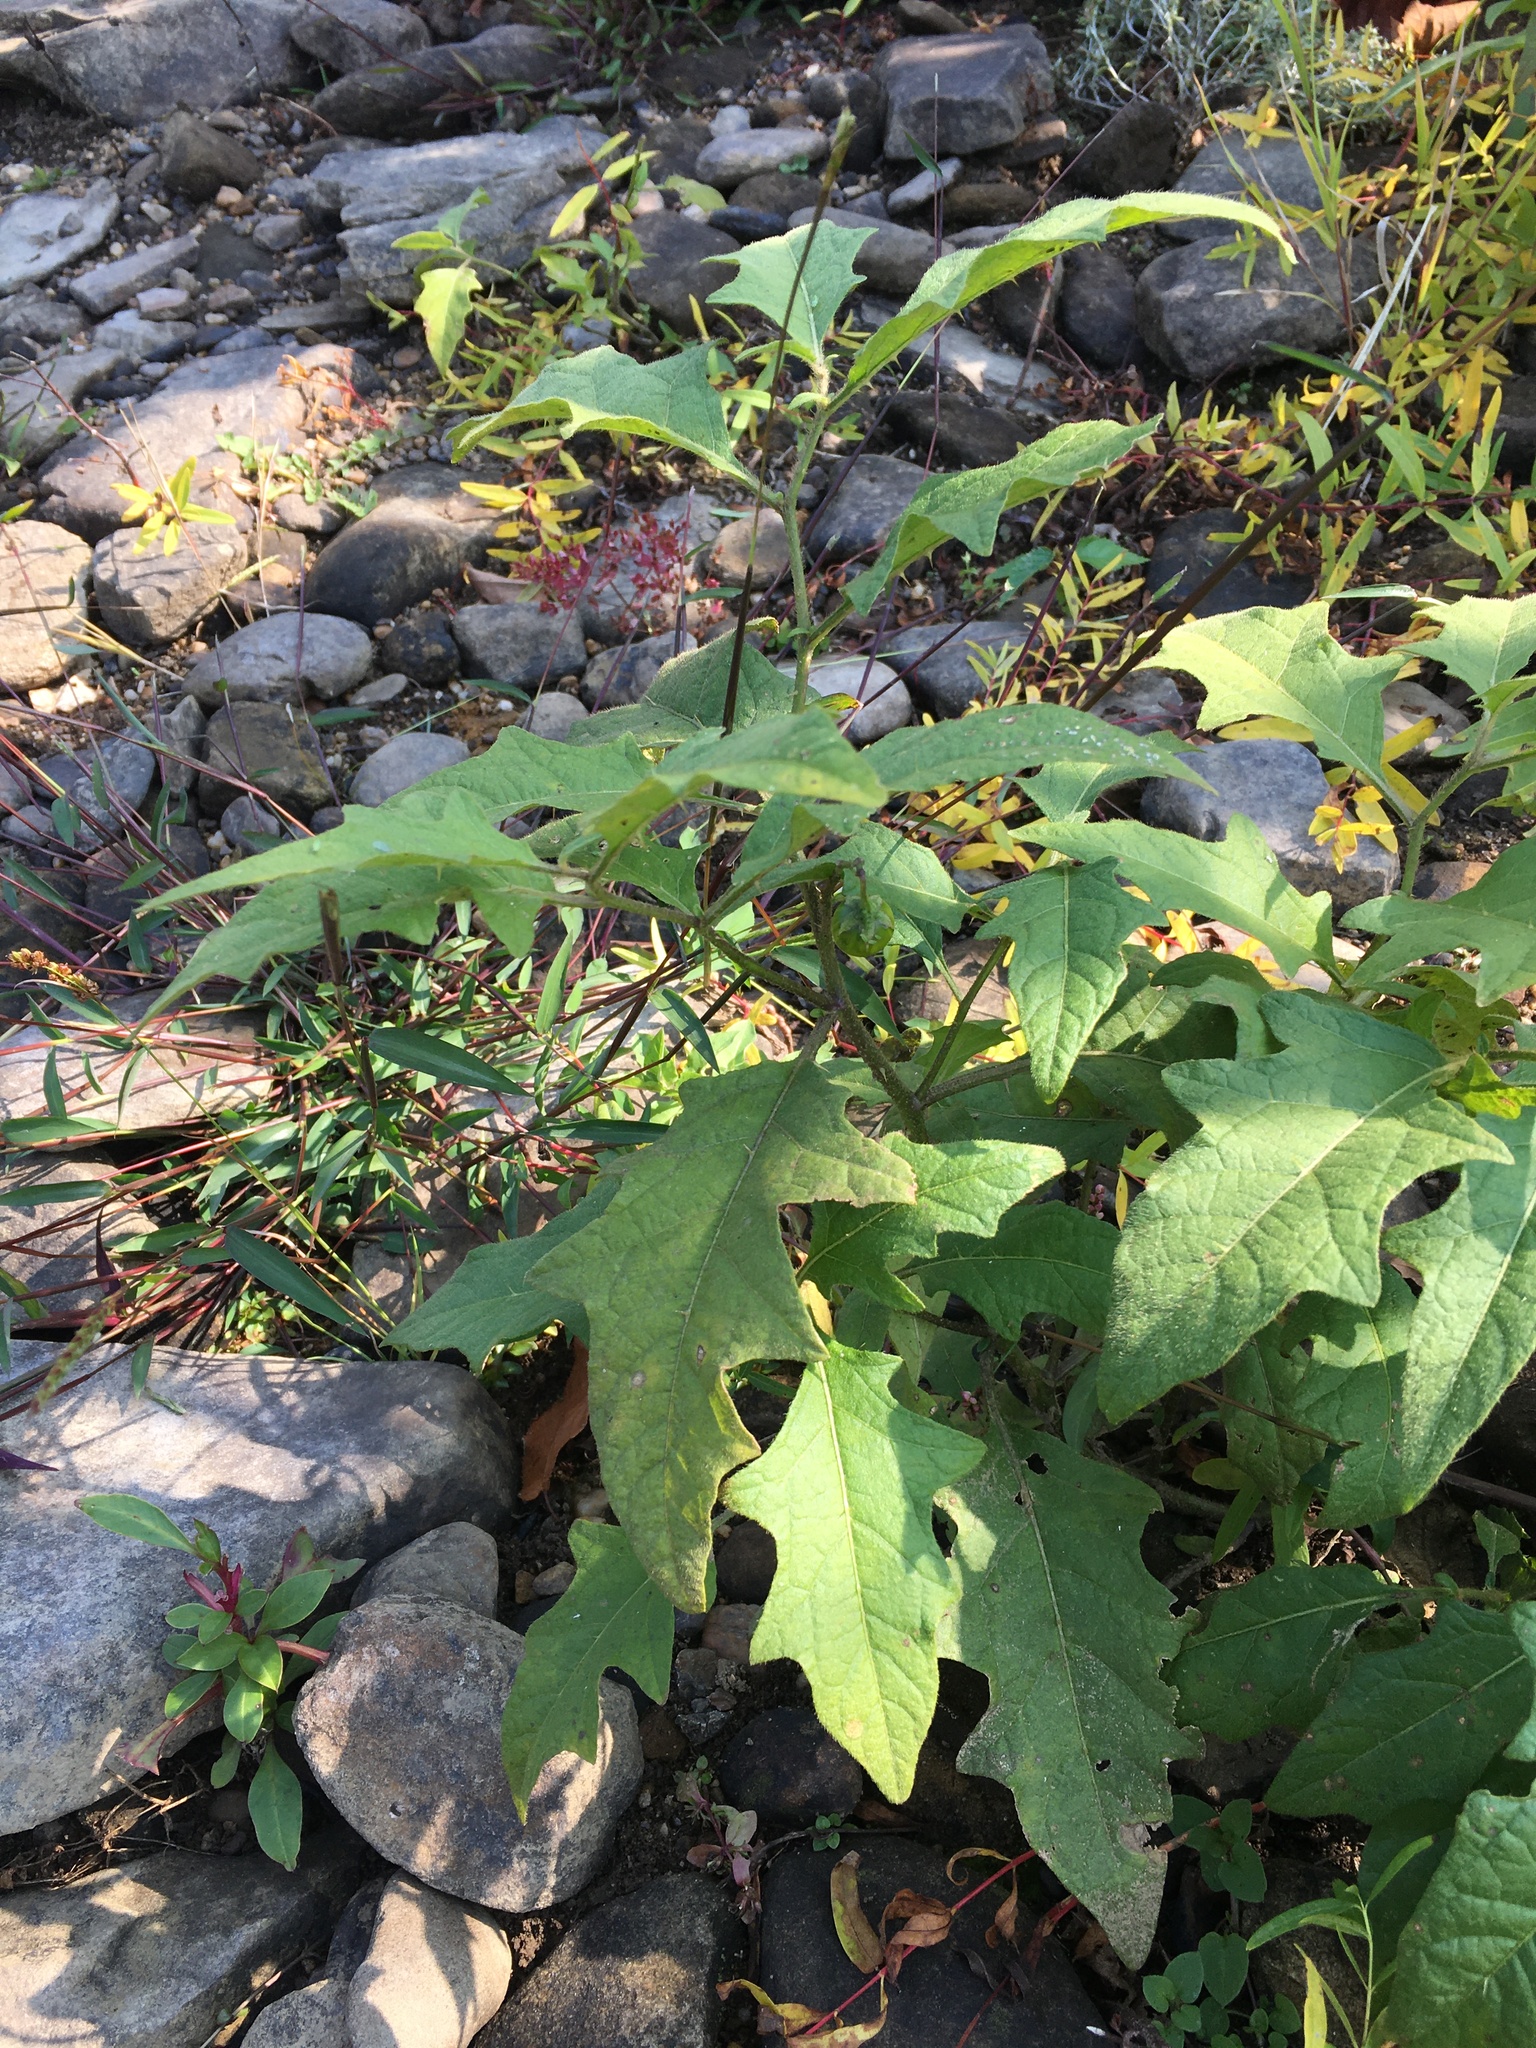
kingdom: Plantae
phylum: Tracheophyta
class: Magnoliopsida
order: Solanales
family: Solanaceae
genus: Solanum
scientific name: Solanum carolinense
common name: Horse-nettle
